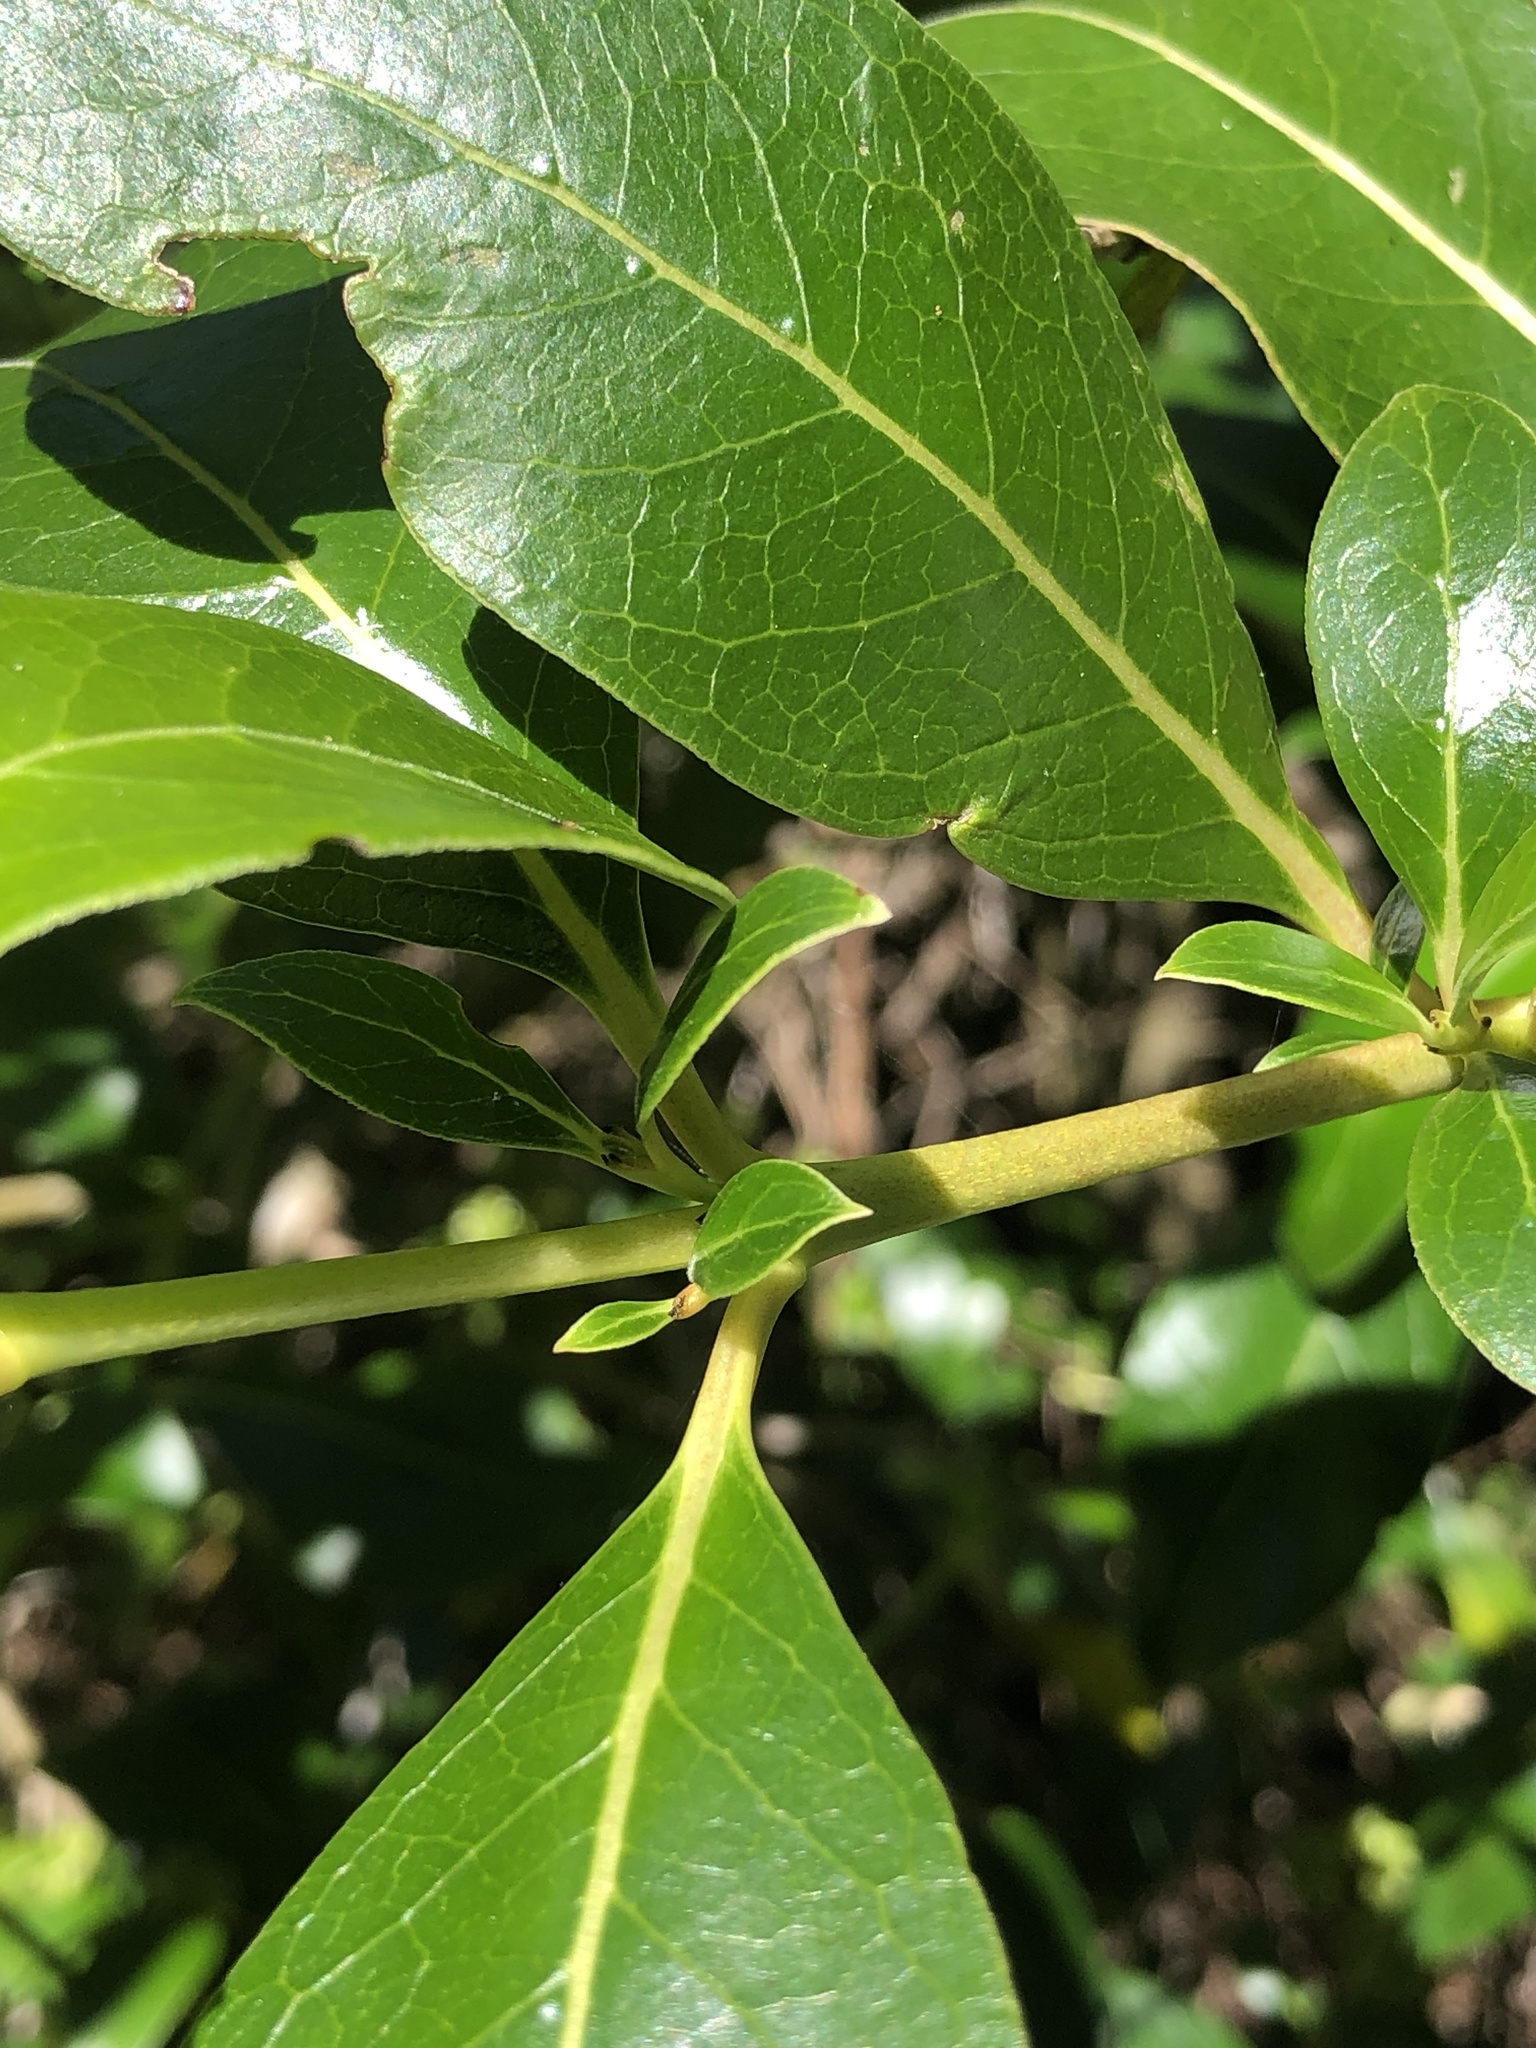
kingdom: Plantae
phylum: Tracheophyta
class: Magnoliopsida
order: Gentianales
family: Rubiaceae
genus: Coprosma
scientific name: Coprosma robusta
